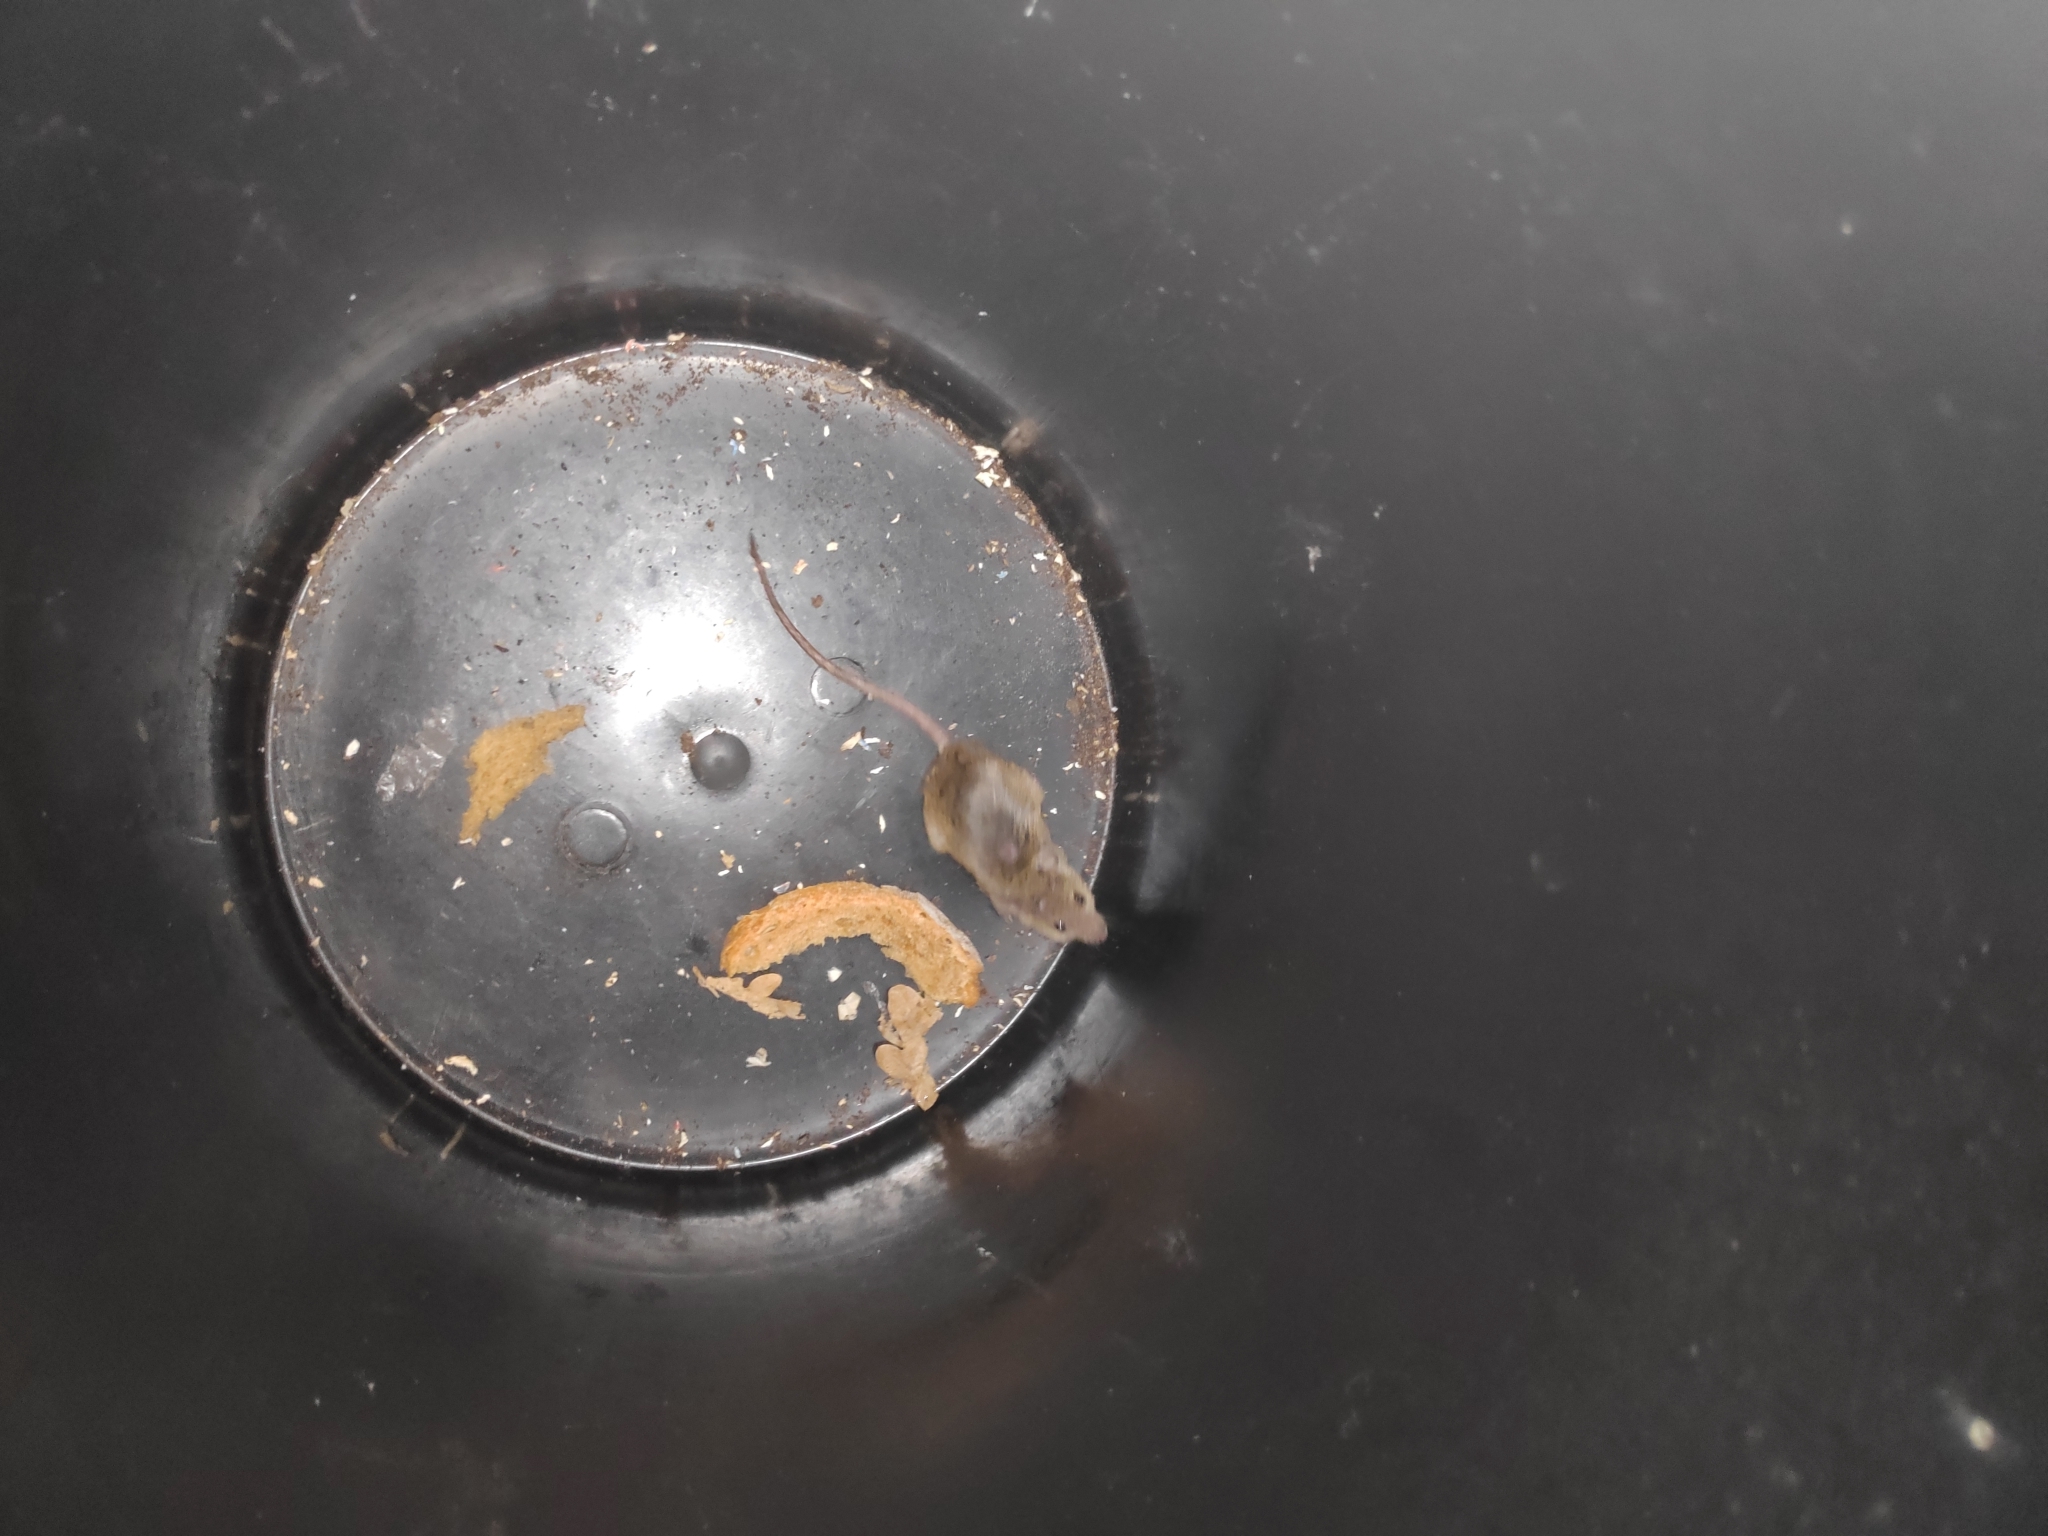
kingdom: Animalia
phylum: Chordata
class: Mammalia
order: Rodentia
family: Muridae
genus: Mus
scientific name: Mus musculus
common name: House mouse
